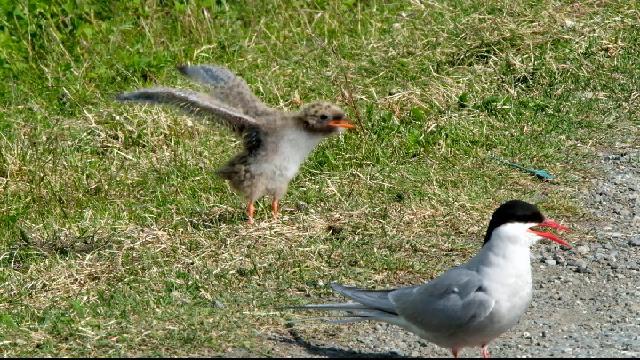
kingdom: Animalia
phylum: Chordata
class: Aves
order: Charadriiformes
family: Laridae
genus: Sterna
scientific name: Sterna paradisaea
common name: Arctic tern
